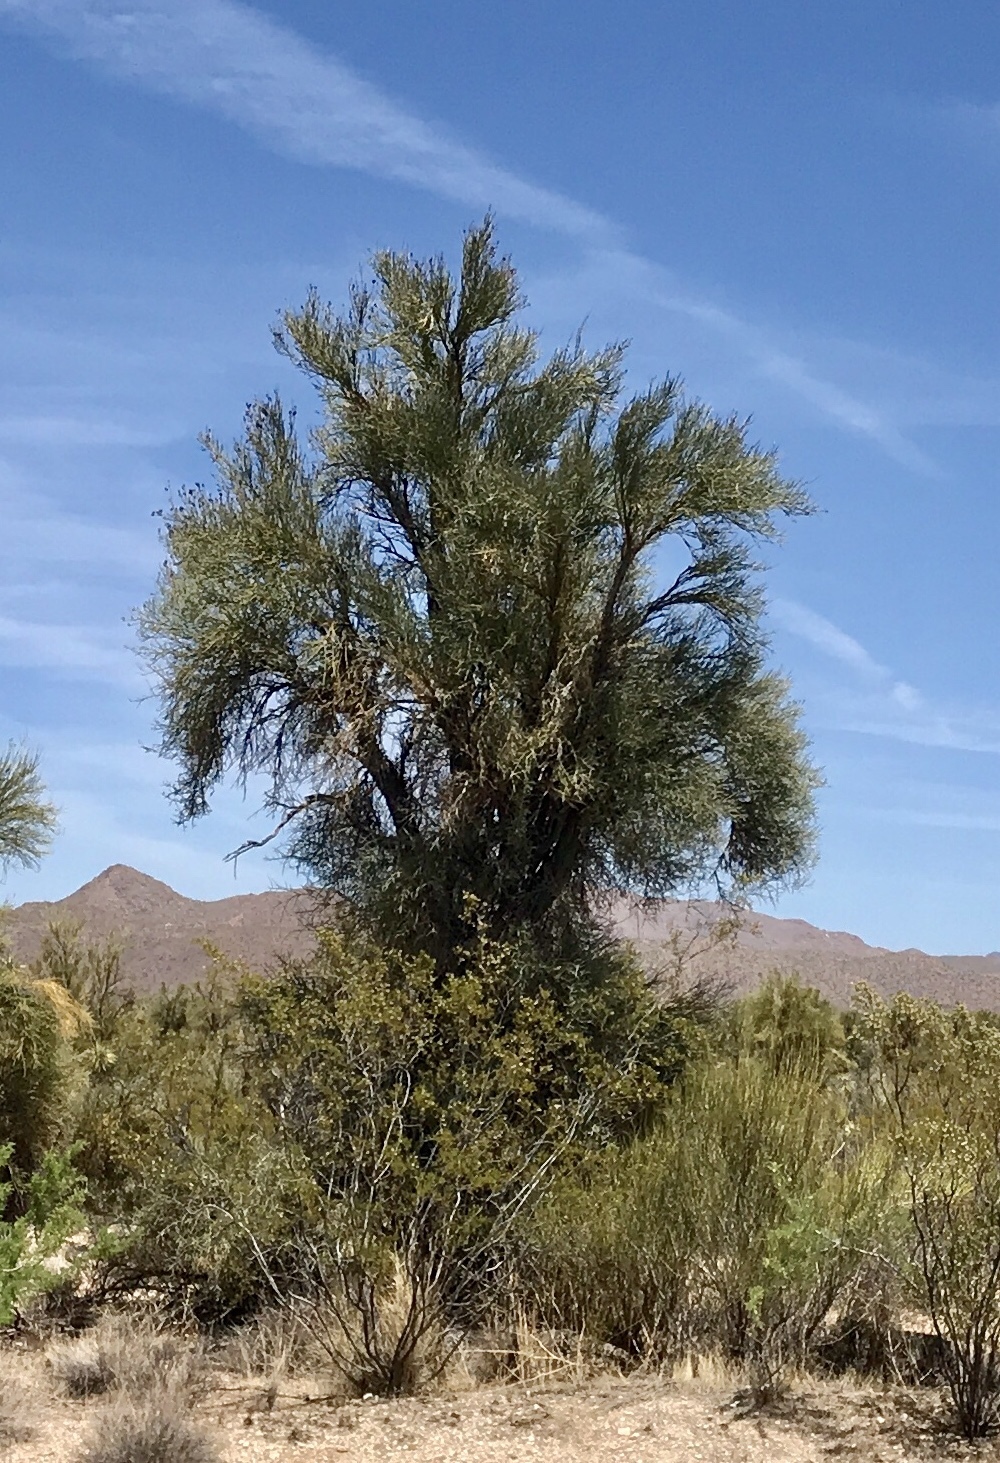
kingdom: Plantae
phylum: Tracheophyta
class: Magnoliopsida
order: Celastrales
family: Celastraceae
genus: Canotia
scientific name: Canotia holacantha
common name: Crucifixion thorns
